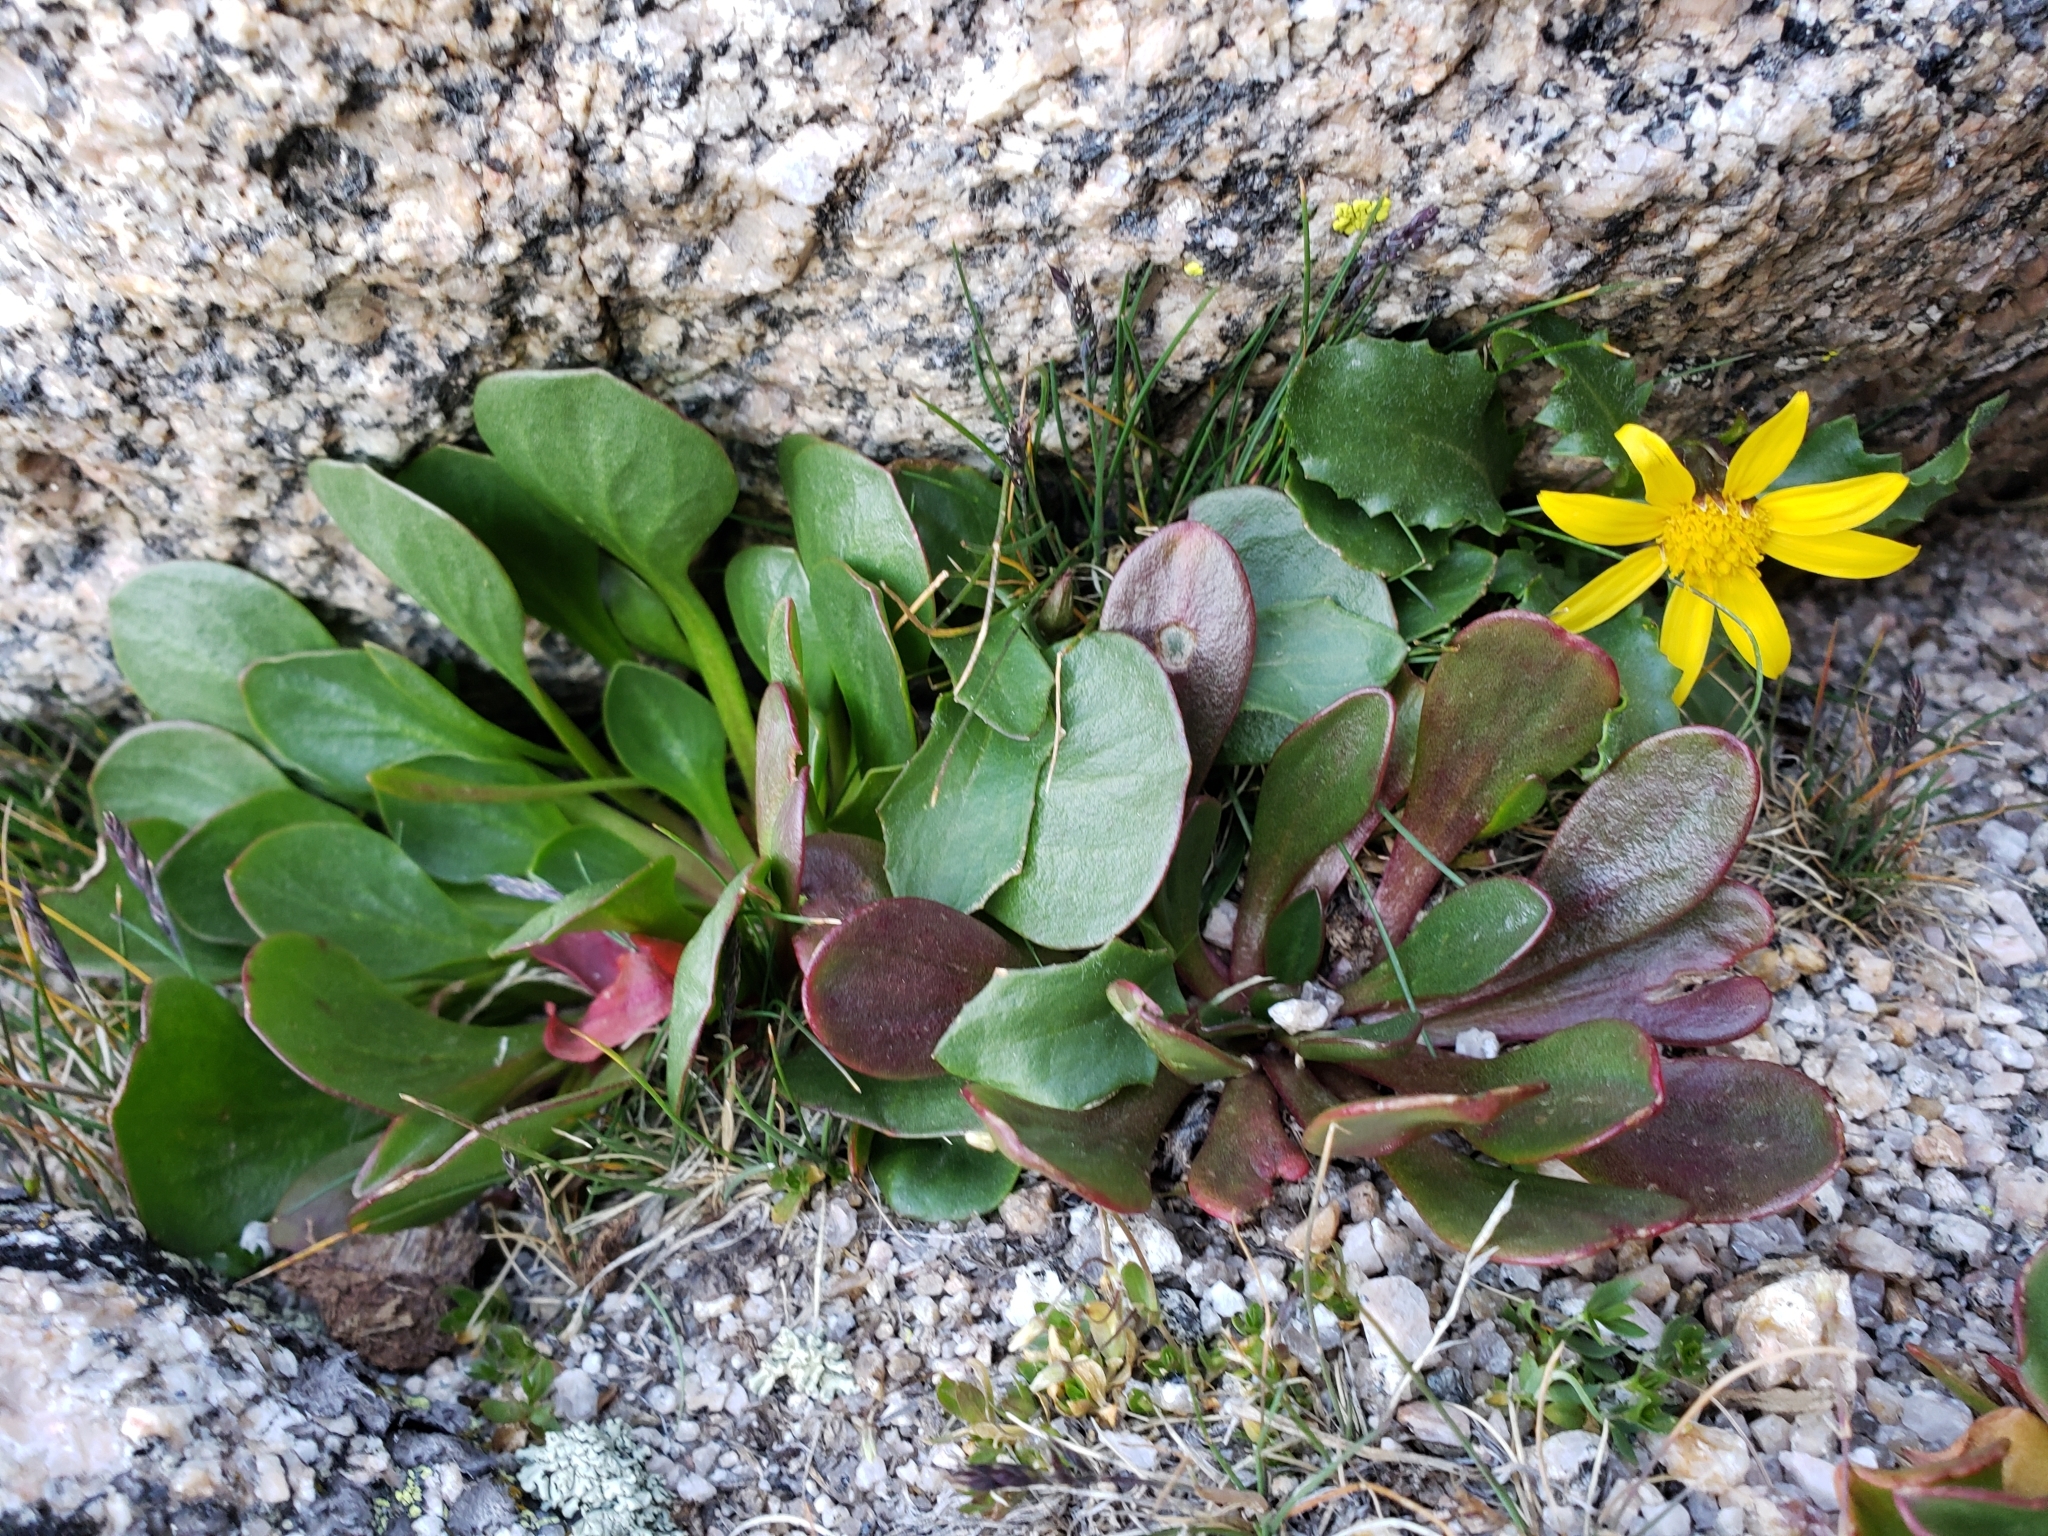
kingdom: Plantae
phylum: Tracheophyta
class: Magnoliopsida
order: Caryophyllales
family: Montiaceae
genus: Claytonia
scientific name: Claytonia megarhiza
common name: Alpine spring beauty
